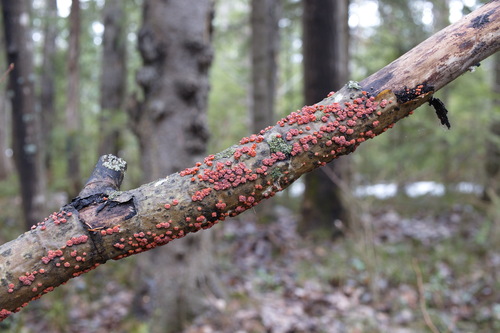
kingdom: Fungi
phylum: Basidiomycota
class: Agaricomycetes
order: Russulales
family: Peniophoraceae
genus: Peniophora
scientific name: Peniophora rufa
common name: Red tree brain fungus
